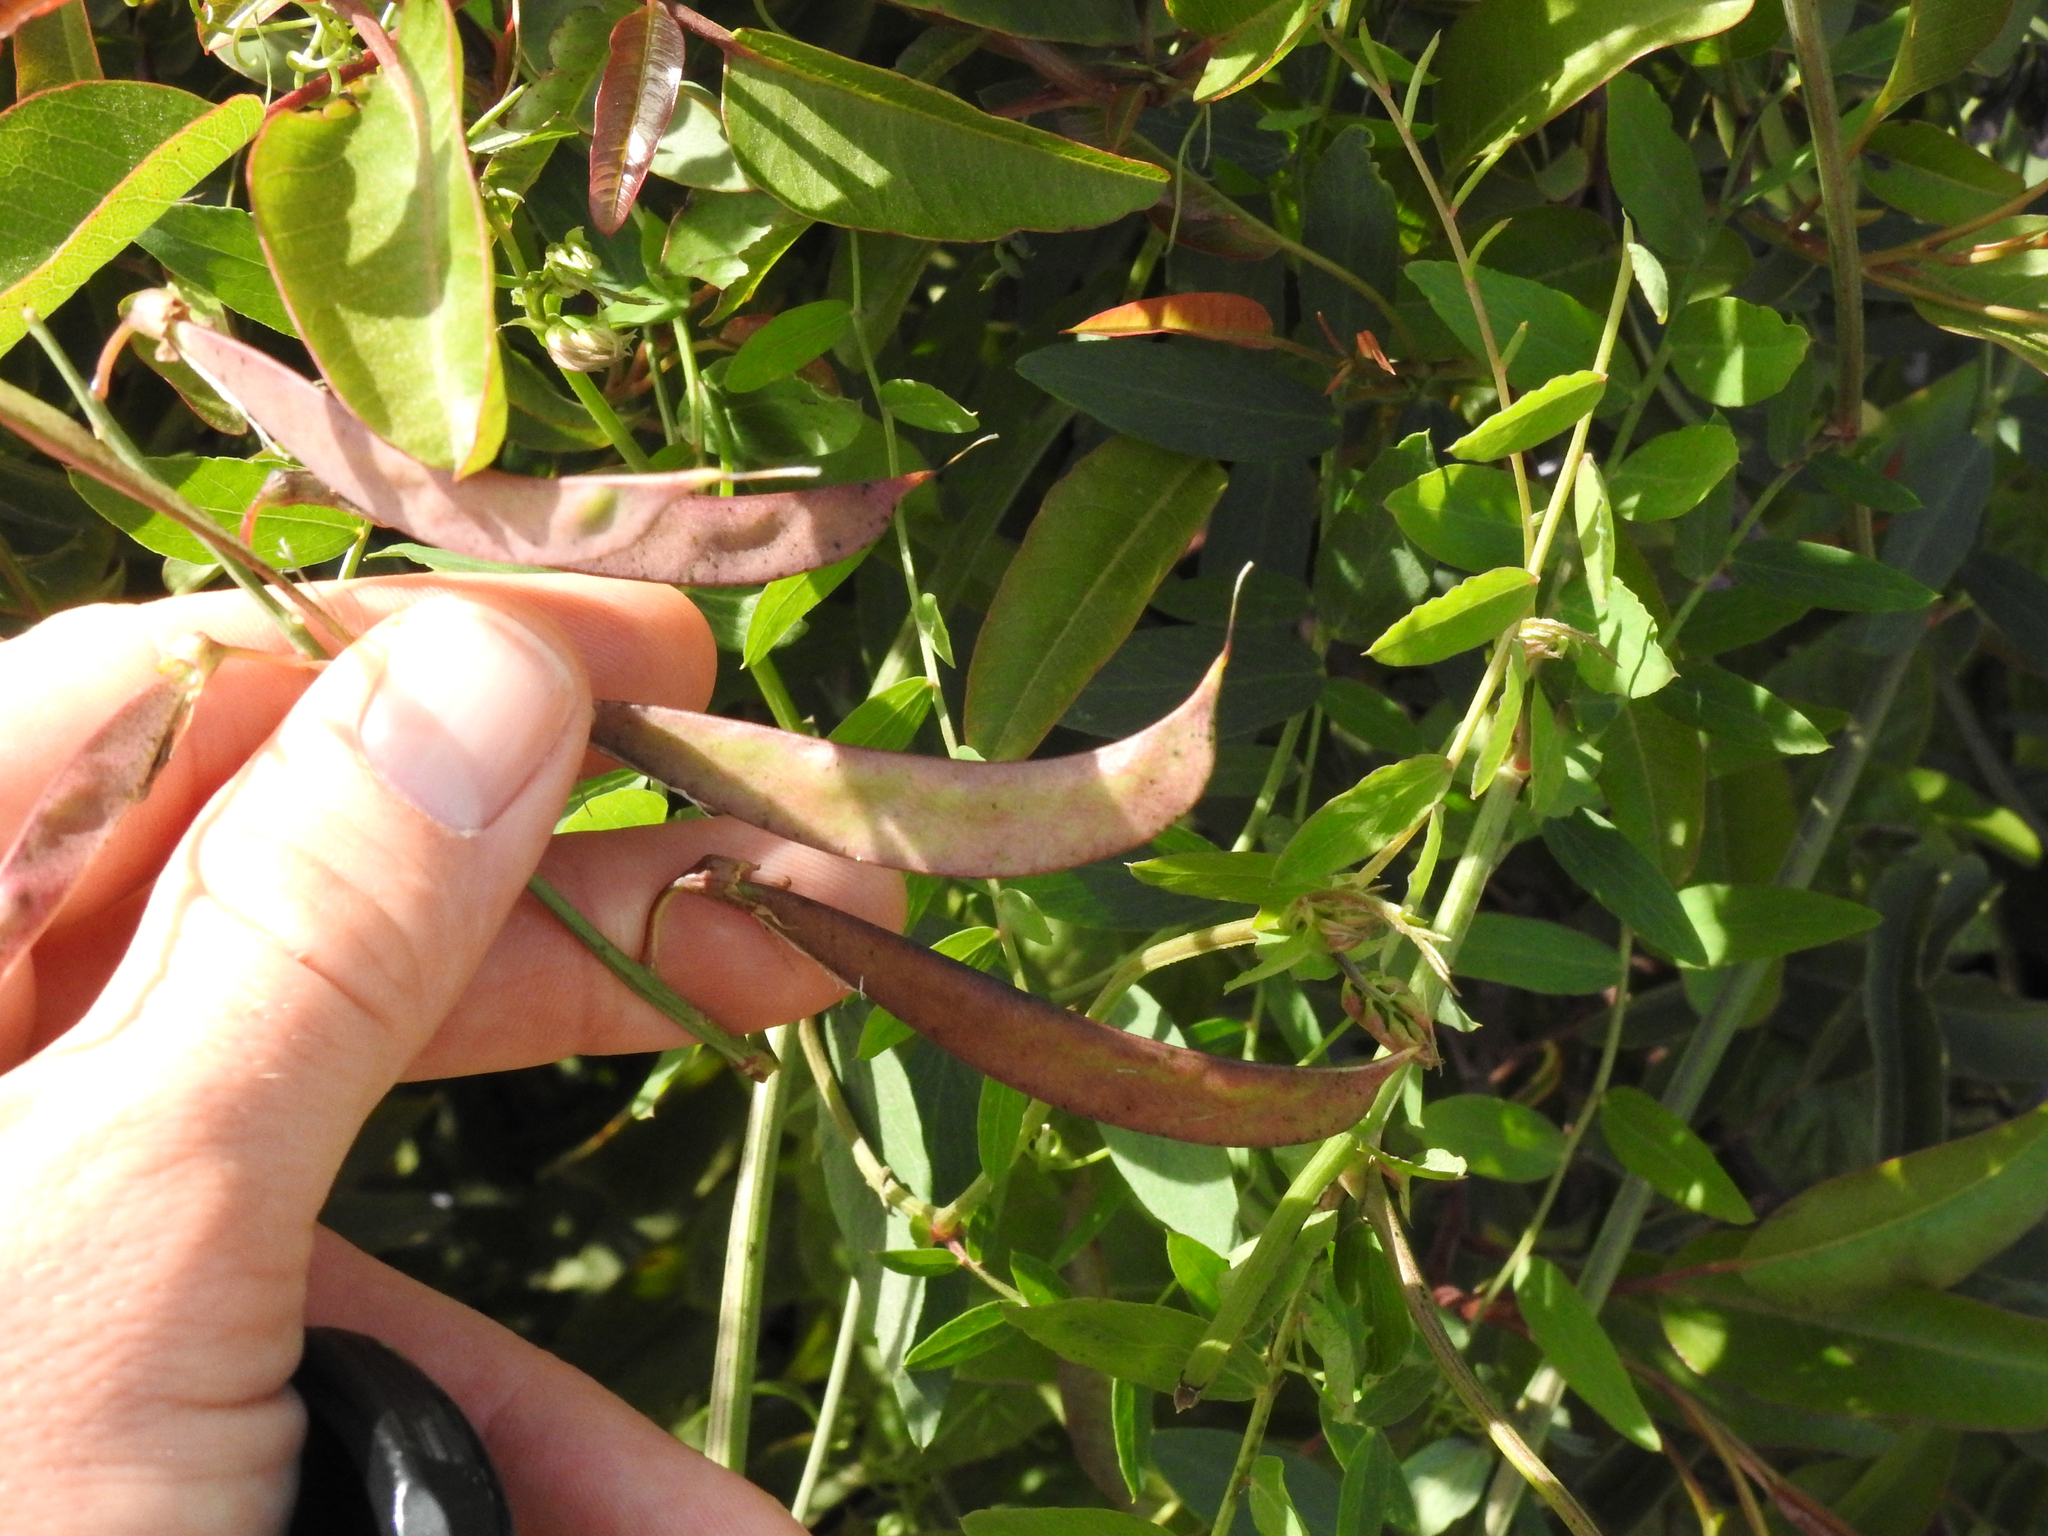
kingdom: Plantae
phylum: Tracheophyta
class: Magnoliopsida
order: Fabales
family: Fabaceae
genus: Lathyrus
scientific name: Lathyrus vestitus
